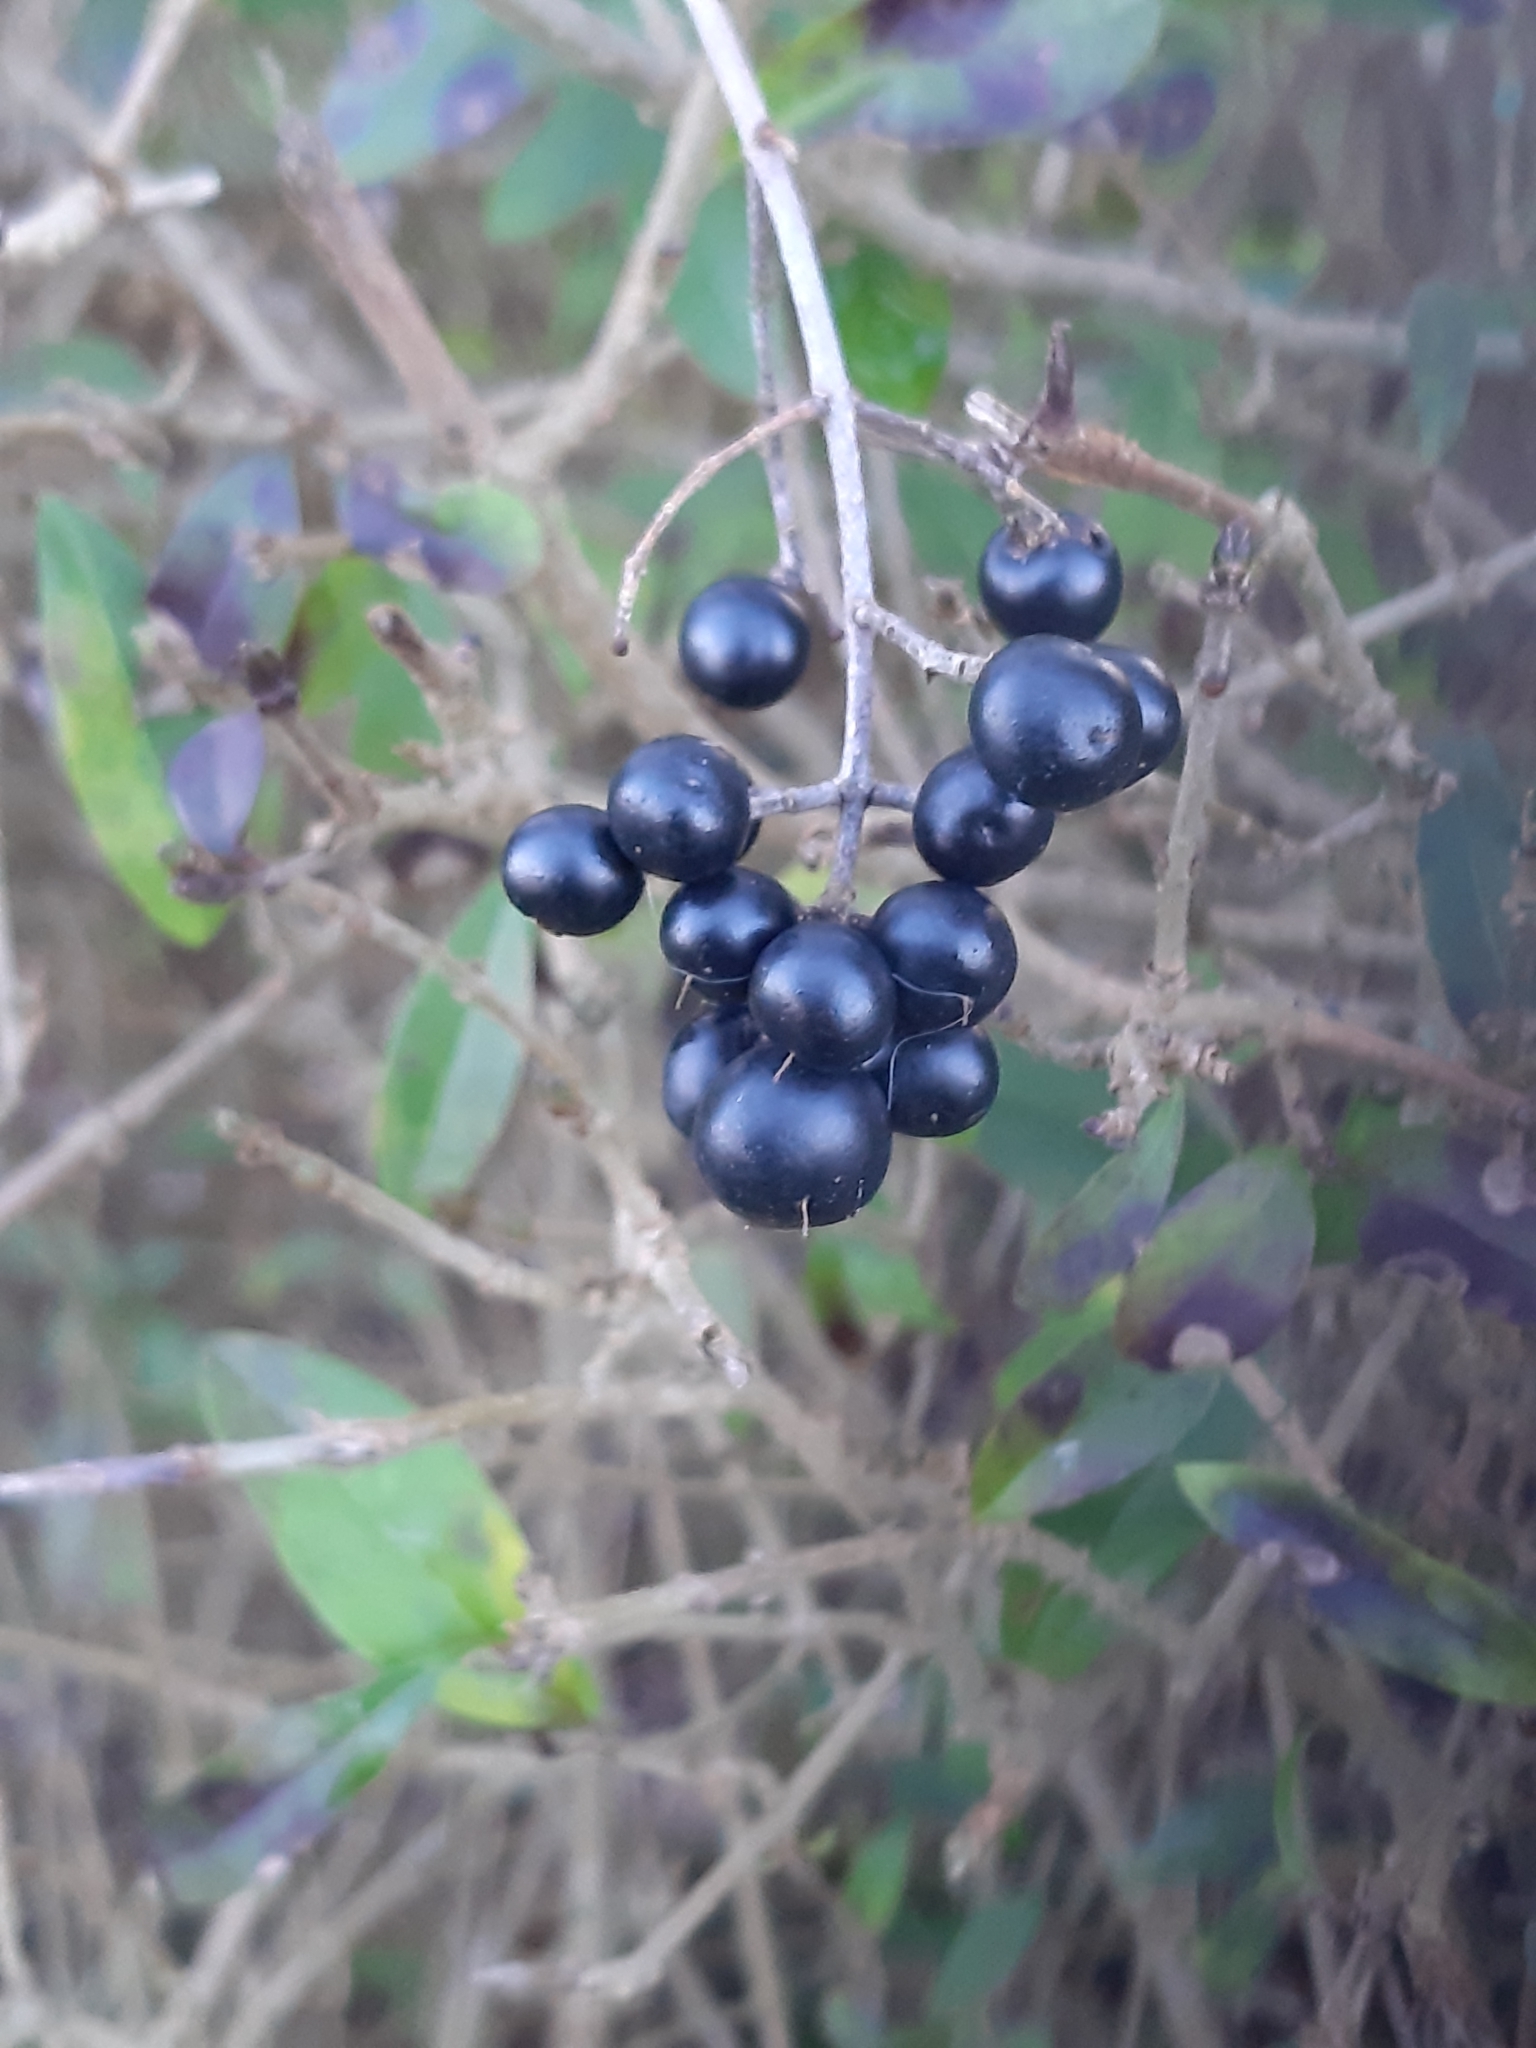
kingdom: Plantae
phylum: Tracheophyta
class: Magnoliopsida
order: Lamiales
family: Oleaceae
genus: Ligustrum
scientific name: Ligustrum vulgare
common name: Wild privet
